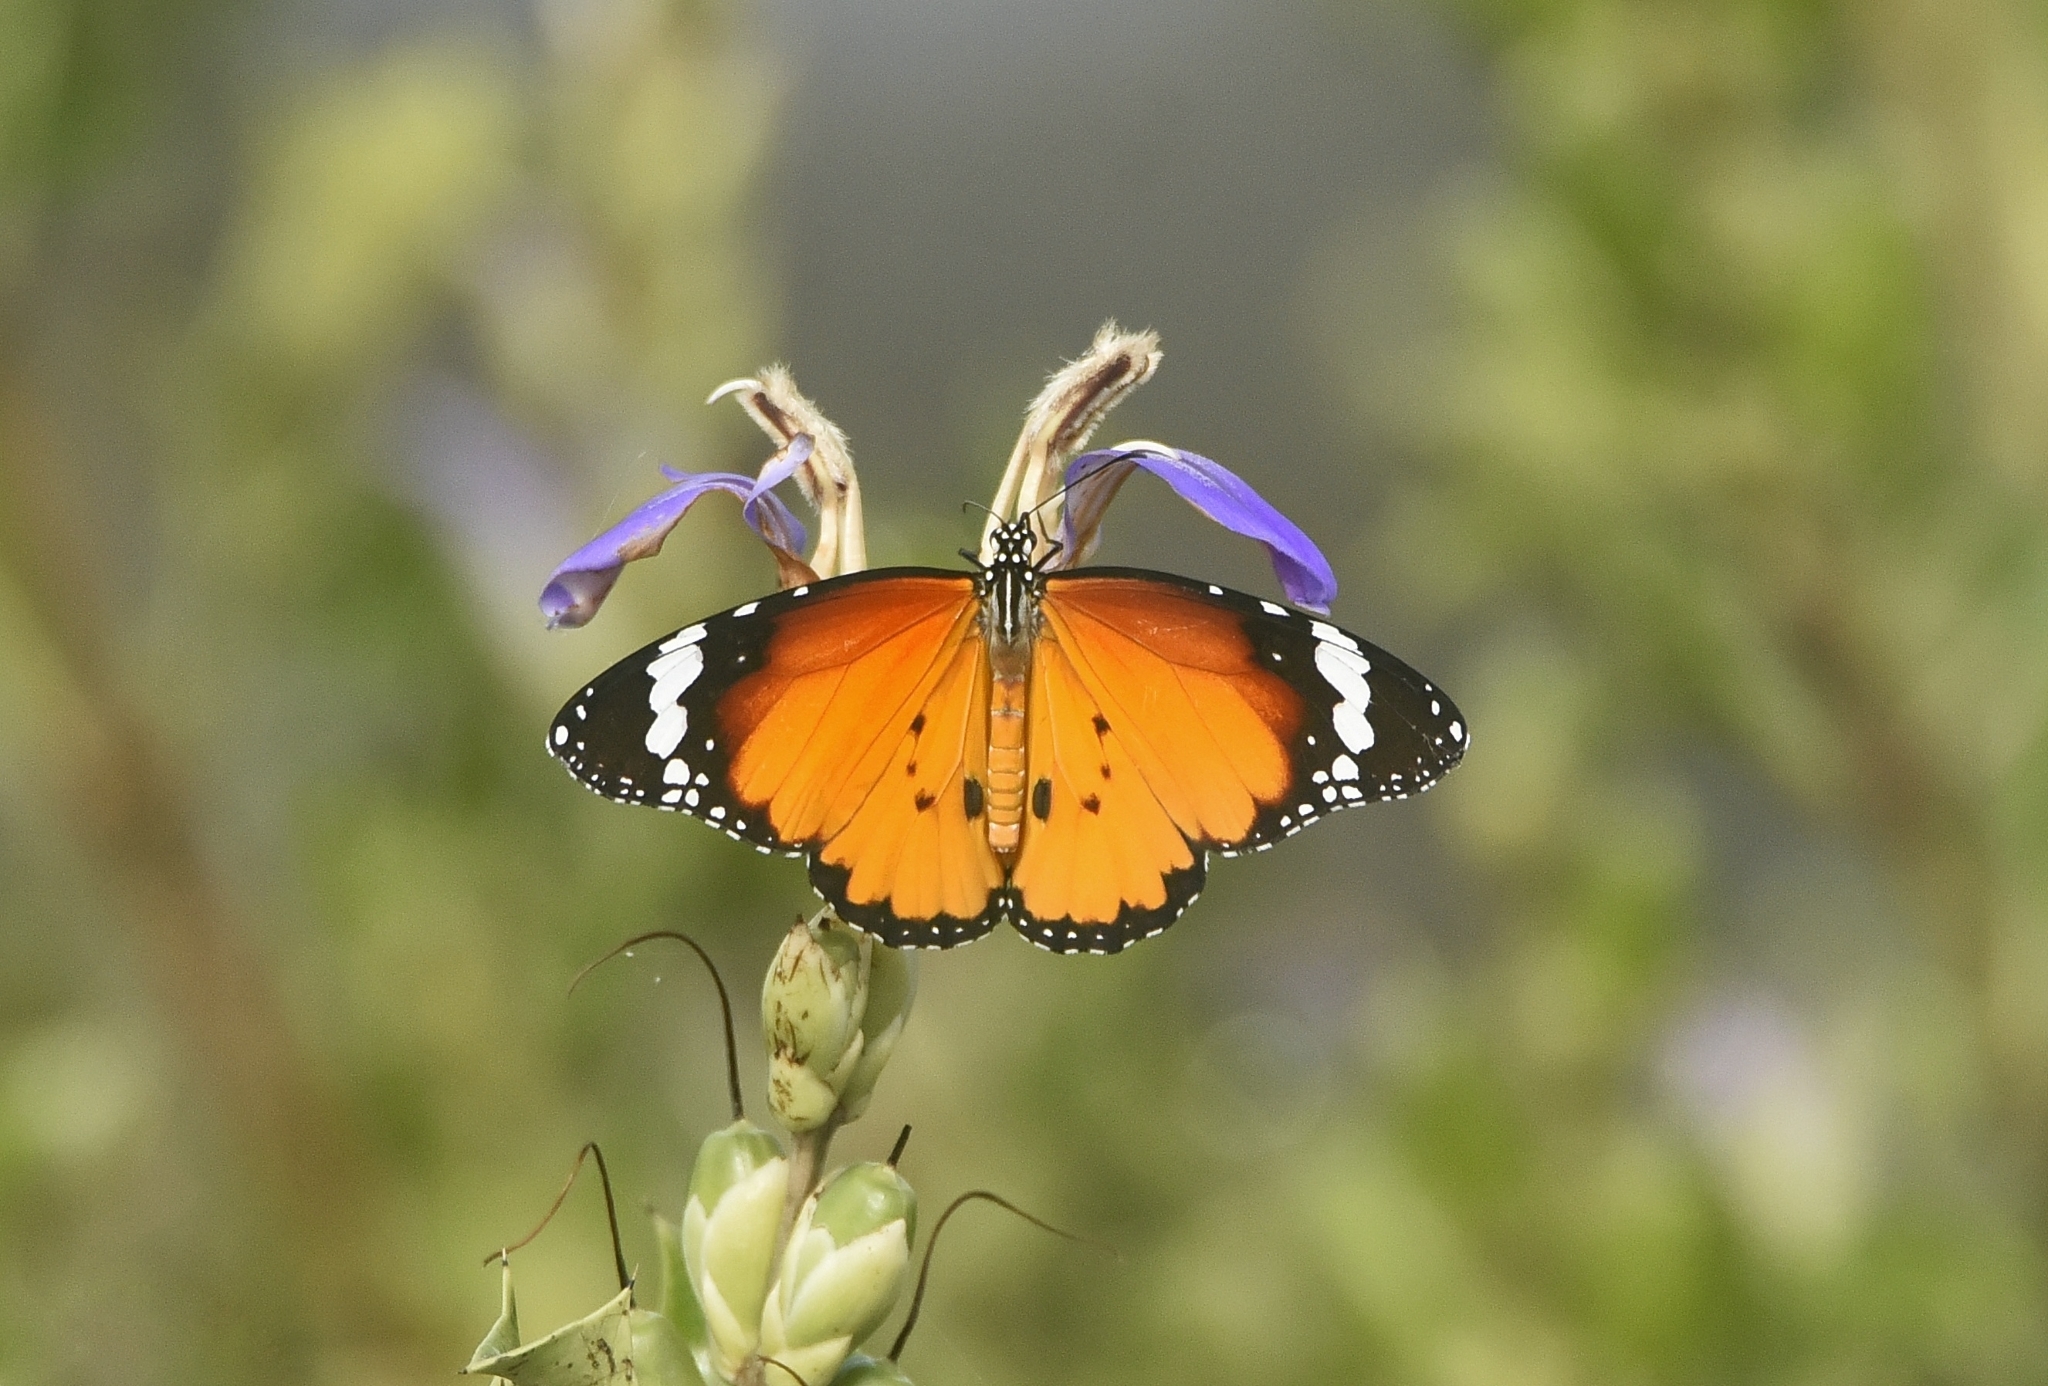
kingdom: Animalia
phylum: Arthropoda
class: Insecta
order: Lepidoptera
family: Nymphalidae
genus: Danaus
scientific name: Danaus chrysippus
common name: Plain tiger
